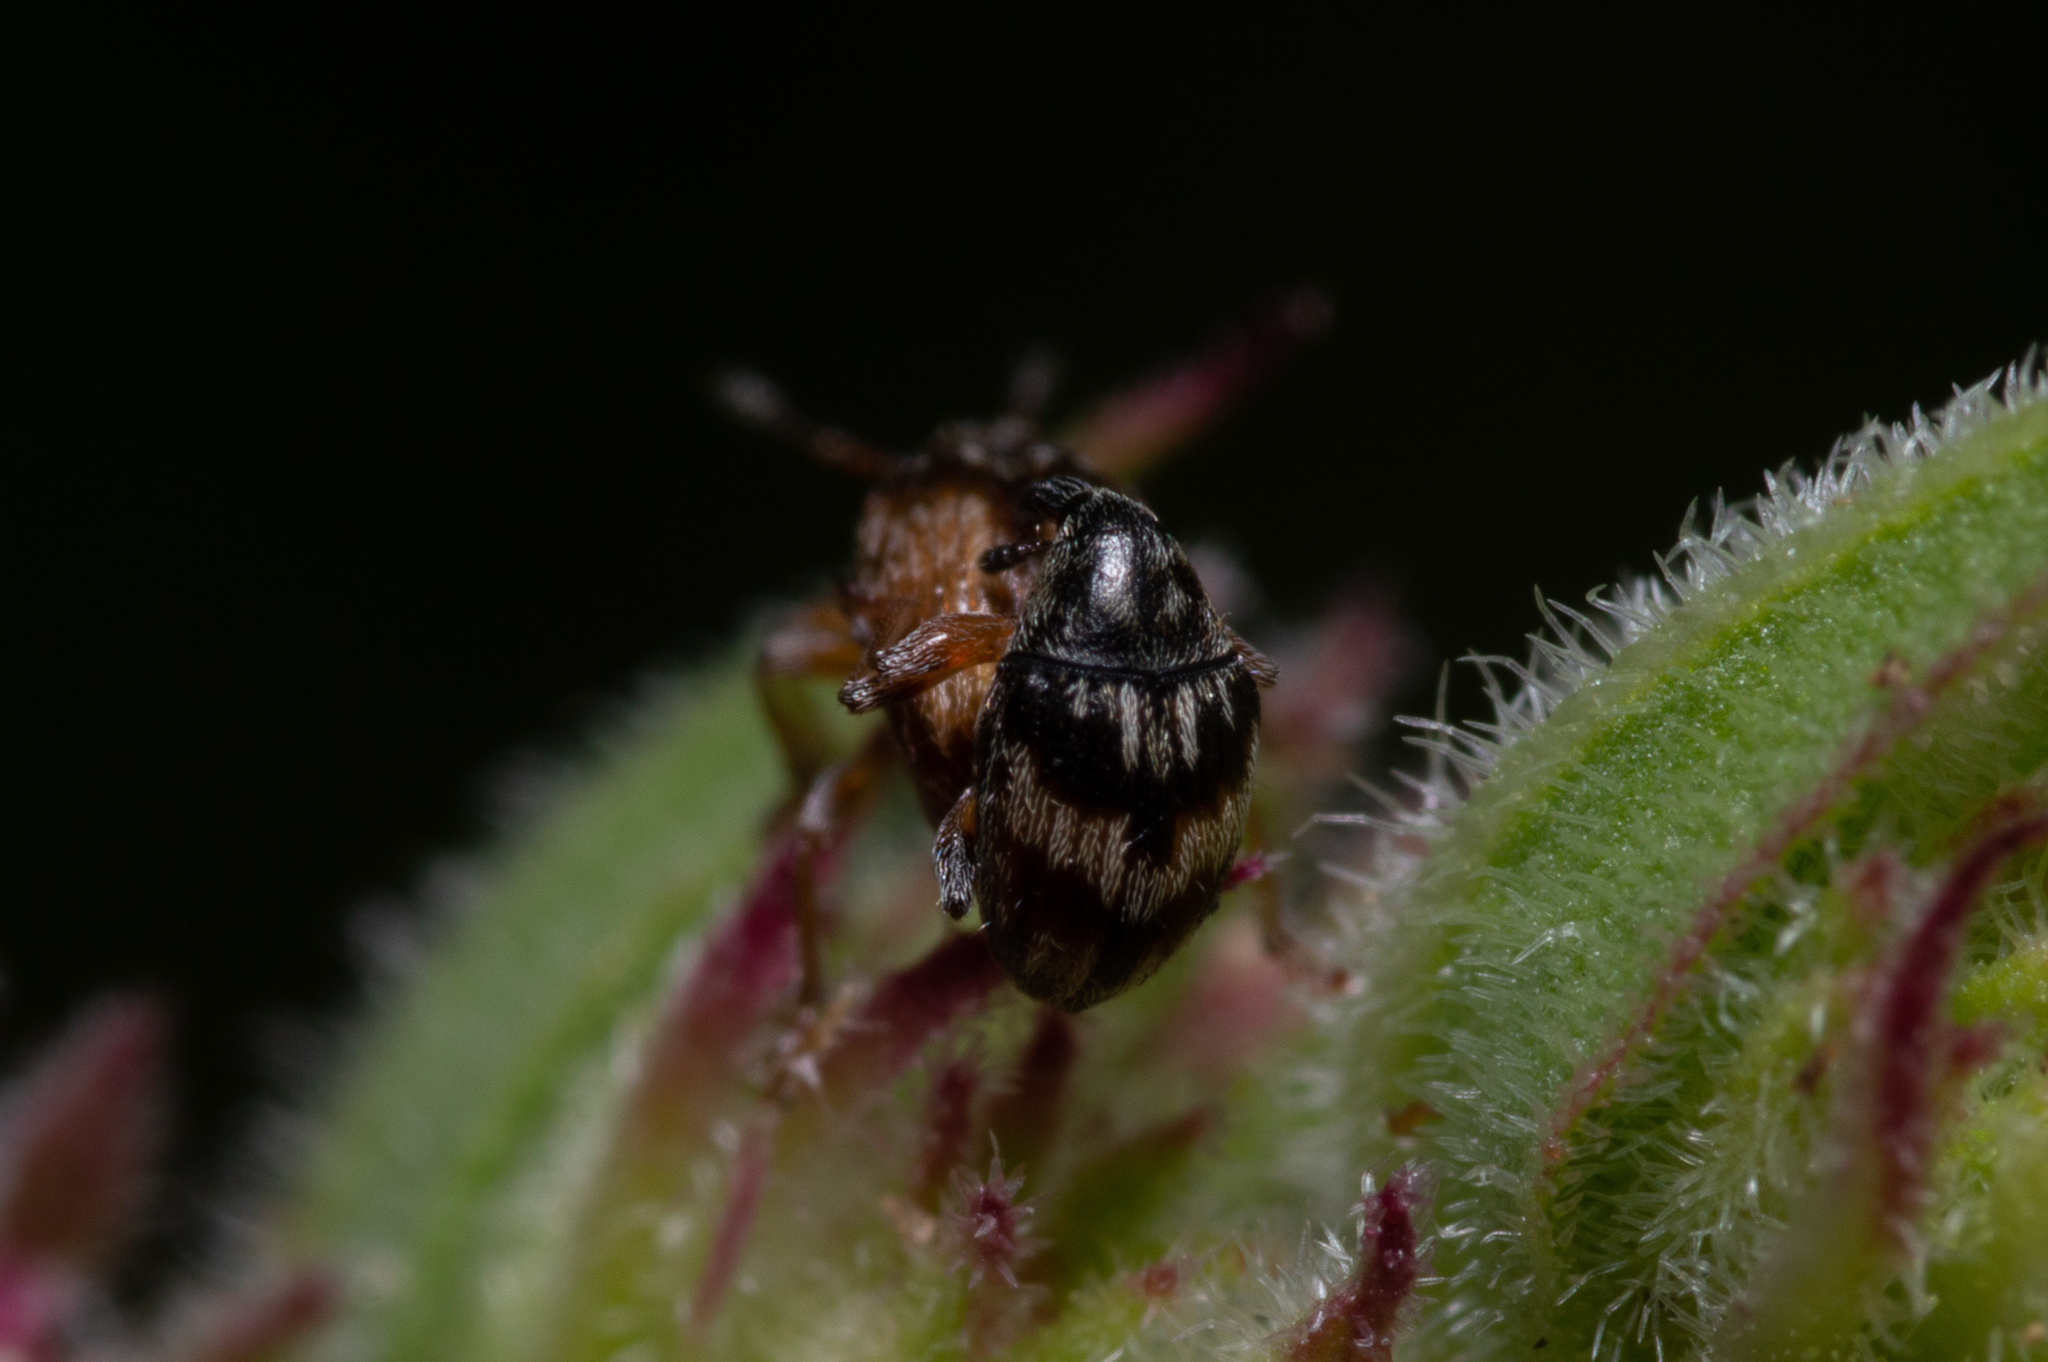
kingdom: Animalia
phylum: Arthropoda
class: Insecta
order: Coleoptera
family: Brentidae
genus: Nanophyes
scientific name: Nanophyes marmoratus
